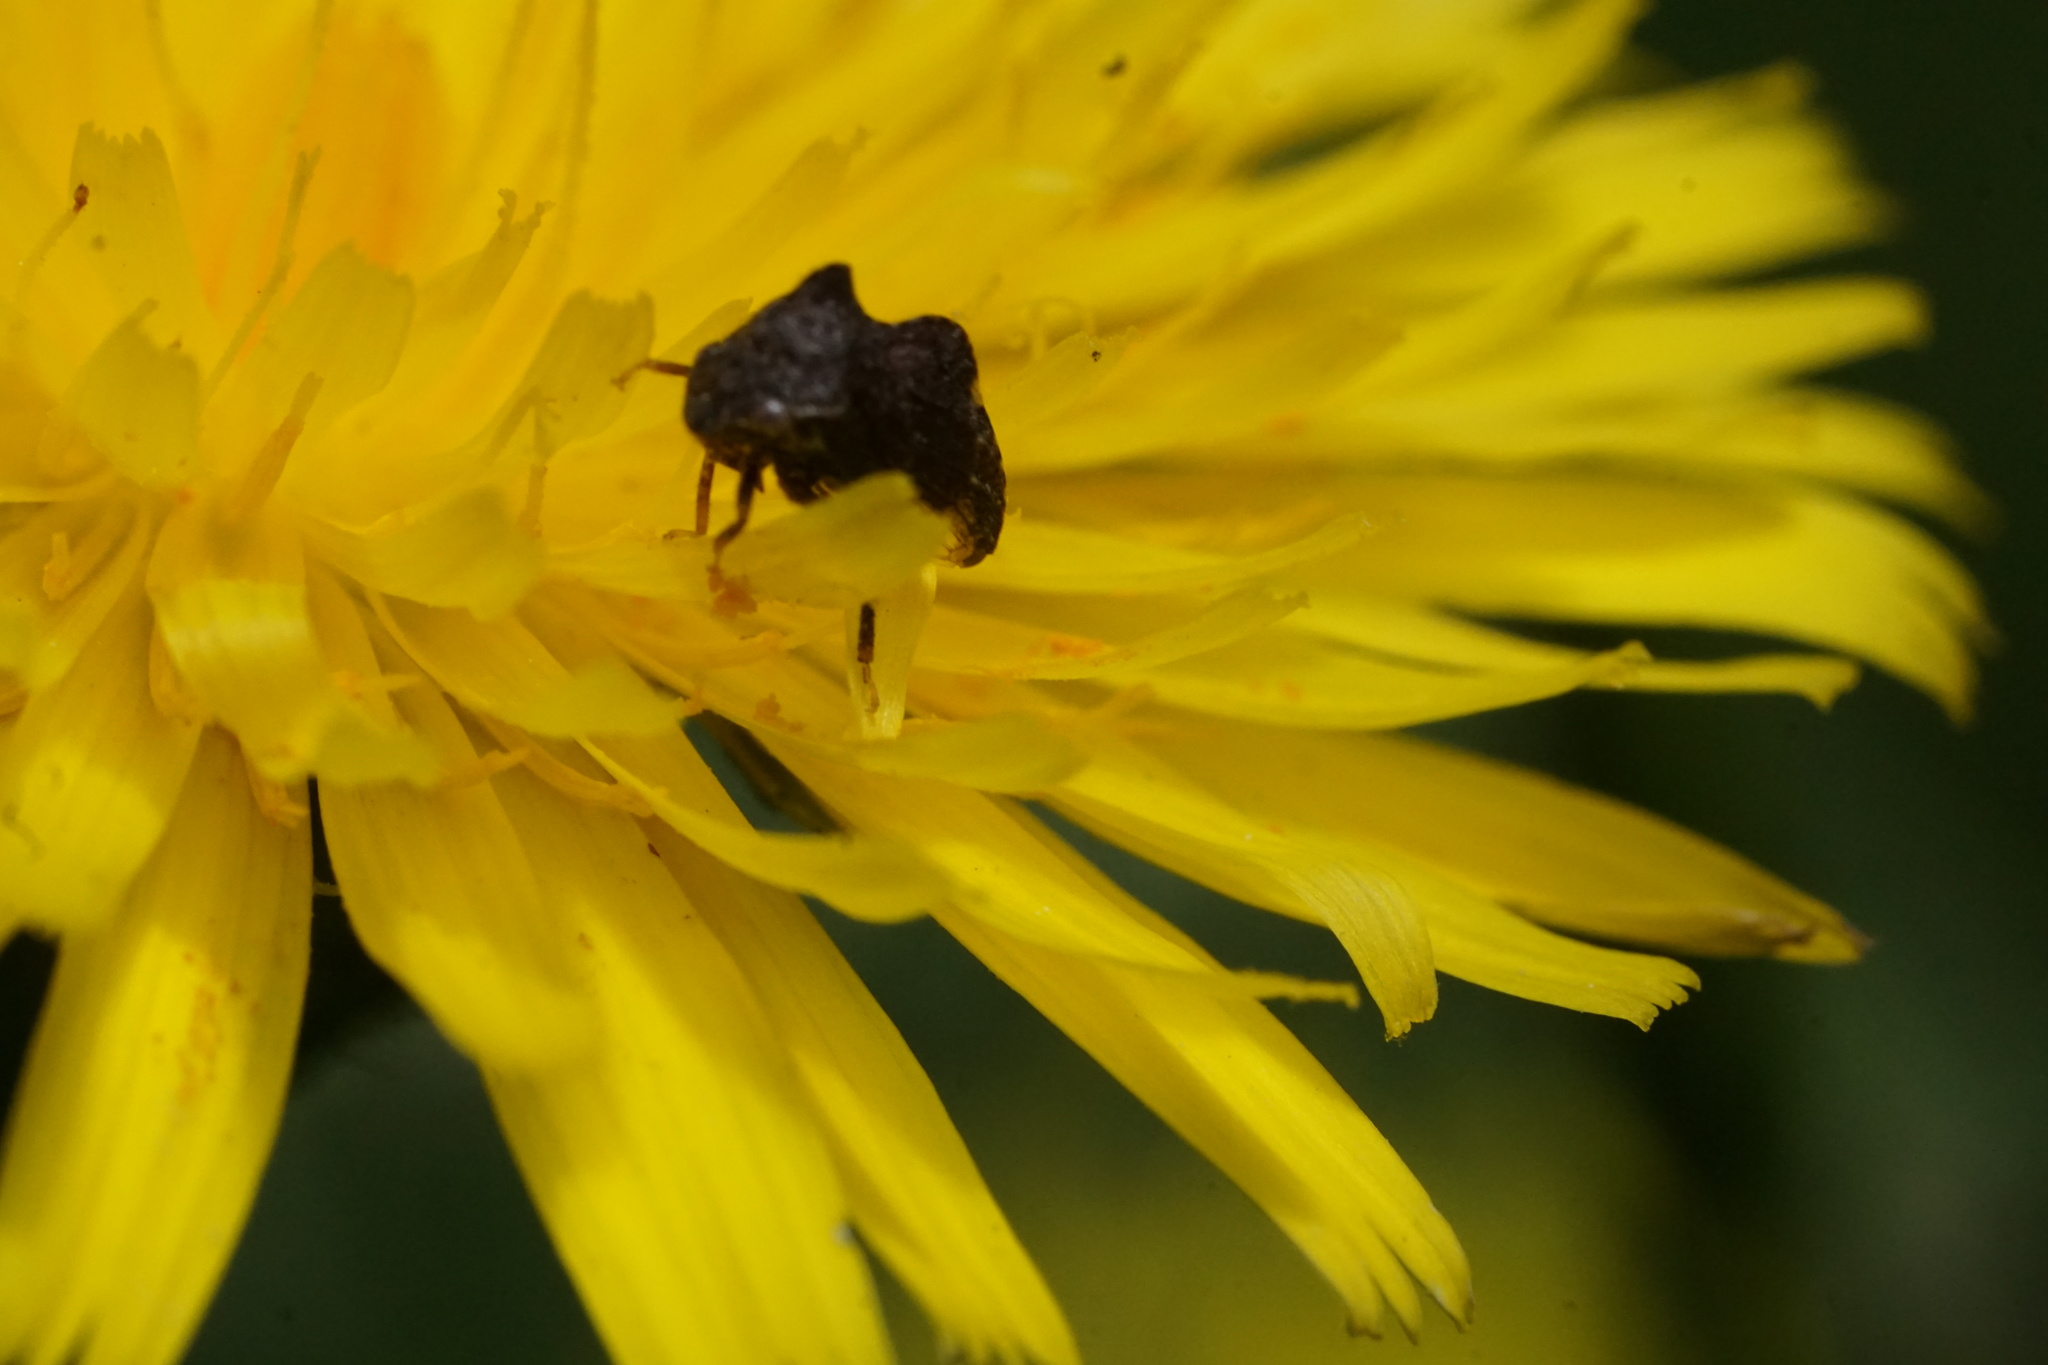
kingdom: Animalia
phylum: Arthropoda
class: Insecta
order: Hemiptera
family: Membracidae
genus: Entylia
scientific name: Entylia carinata
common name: Keeled treehopper
